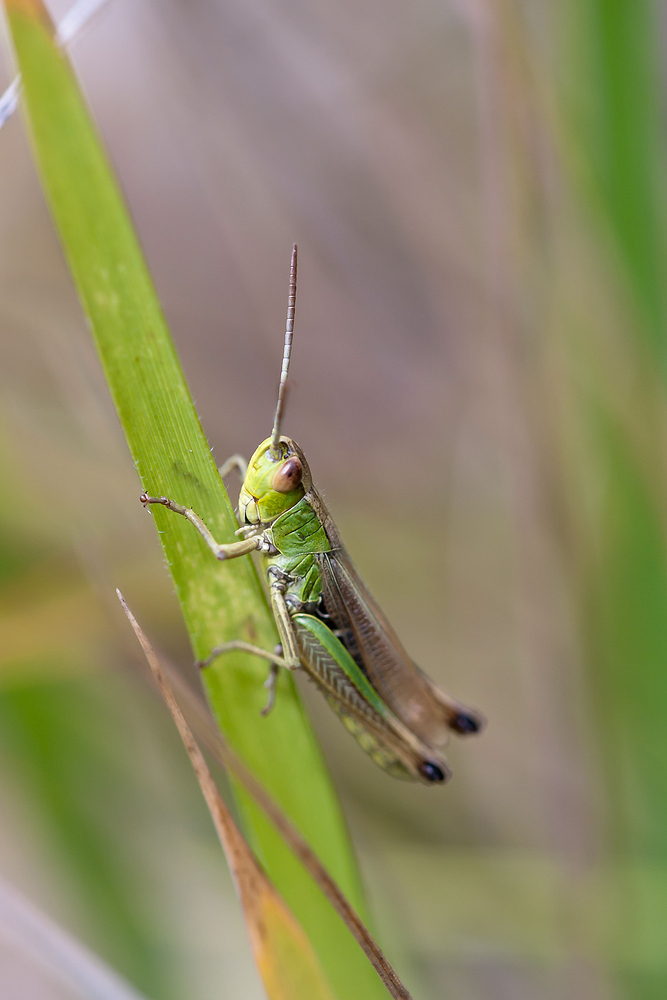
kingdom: Animalia
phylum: Arthropoda
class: Insecta
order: Orthoptera
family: Acrididae
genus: Pseudochorthippus
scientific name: Pseudochorthippus parallelus
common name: Meadow grasshopper
